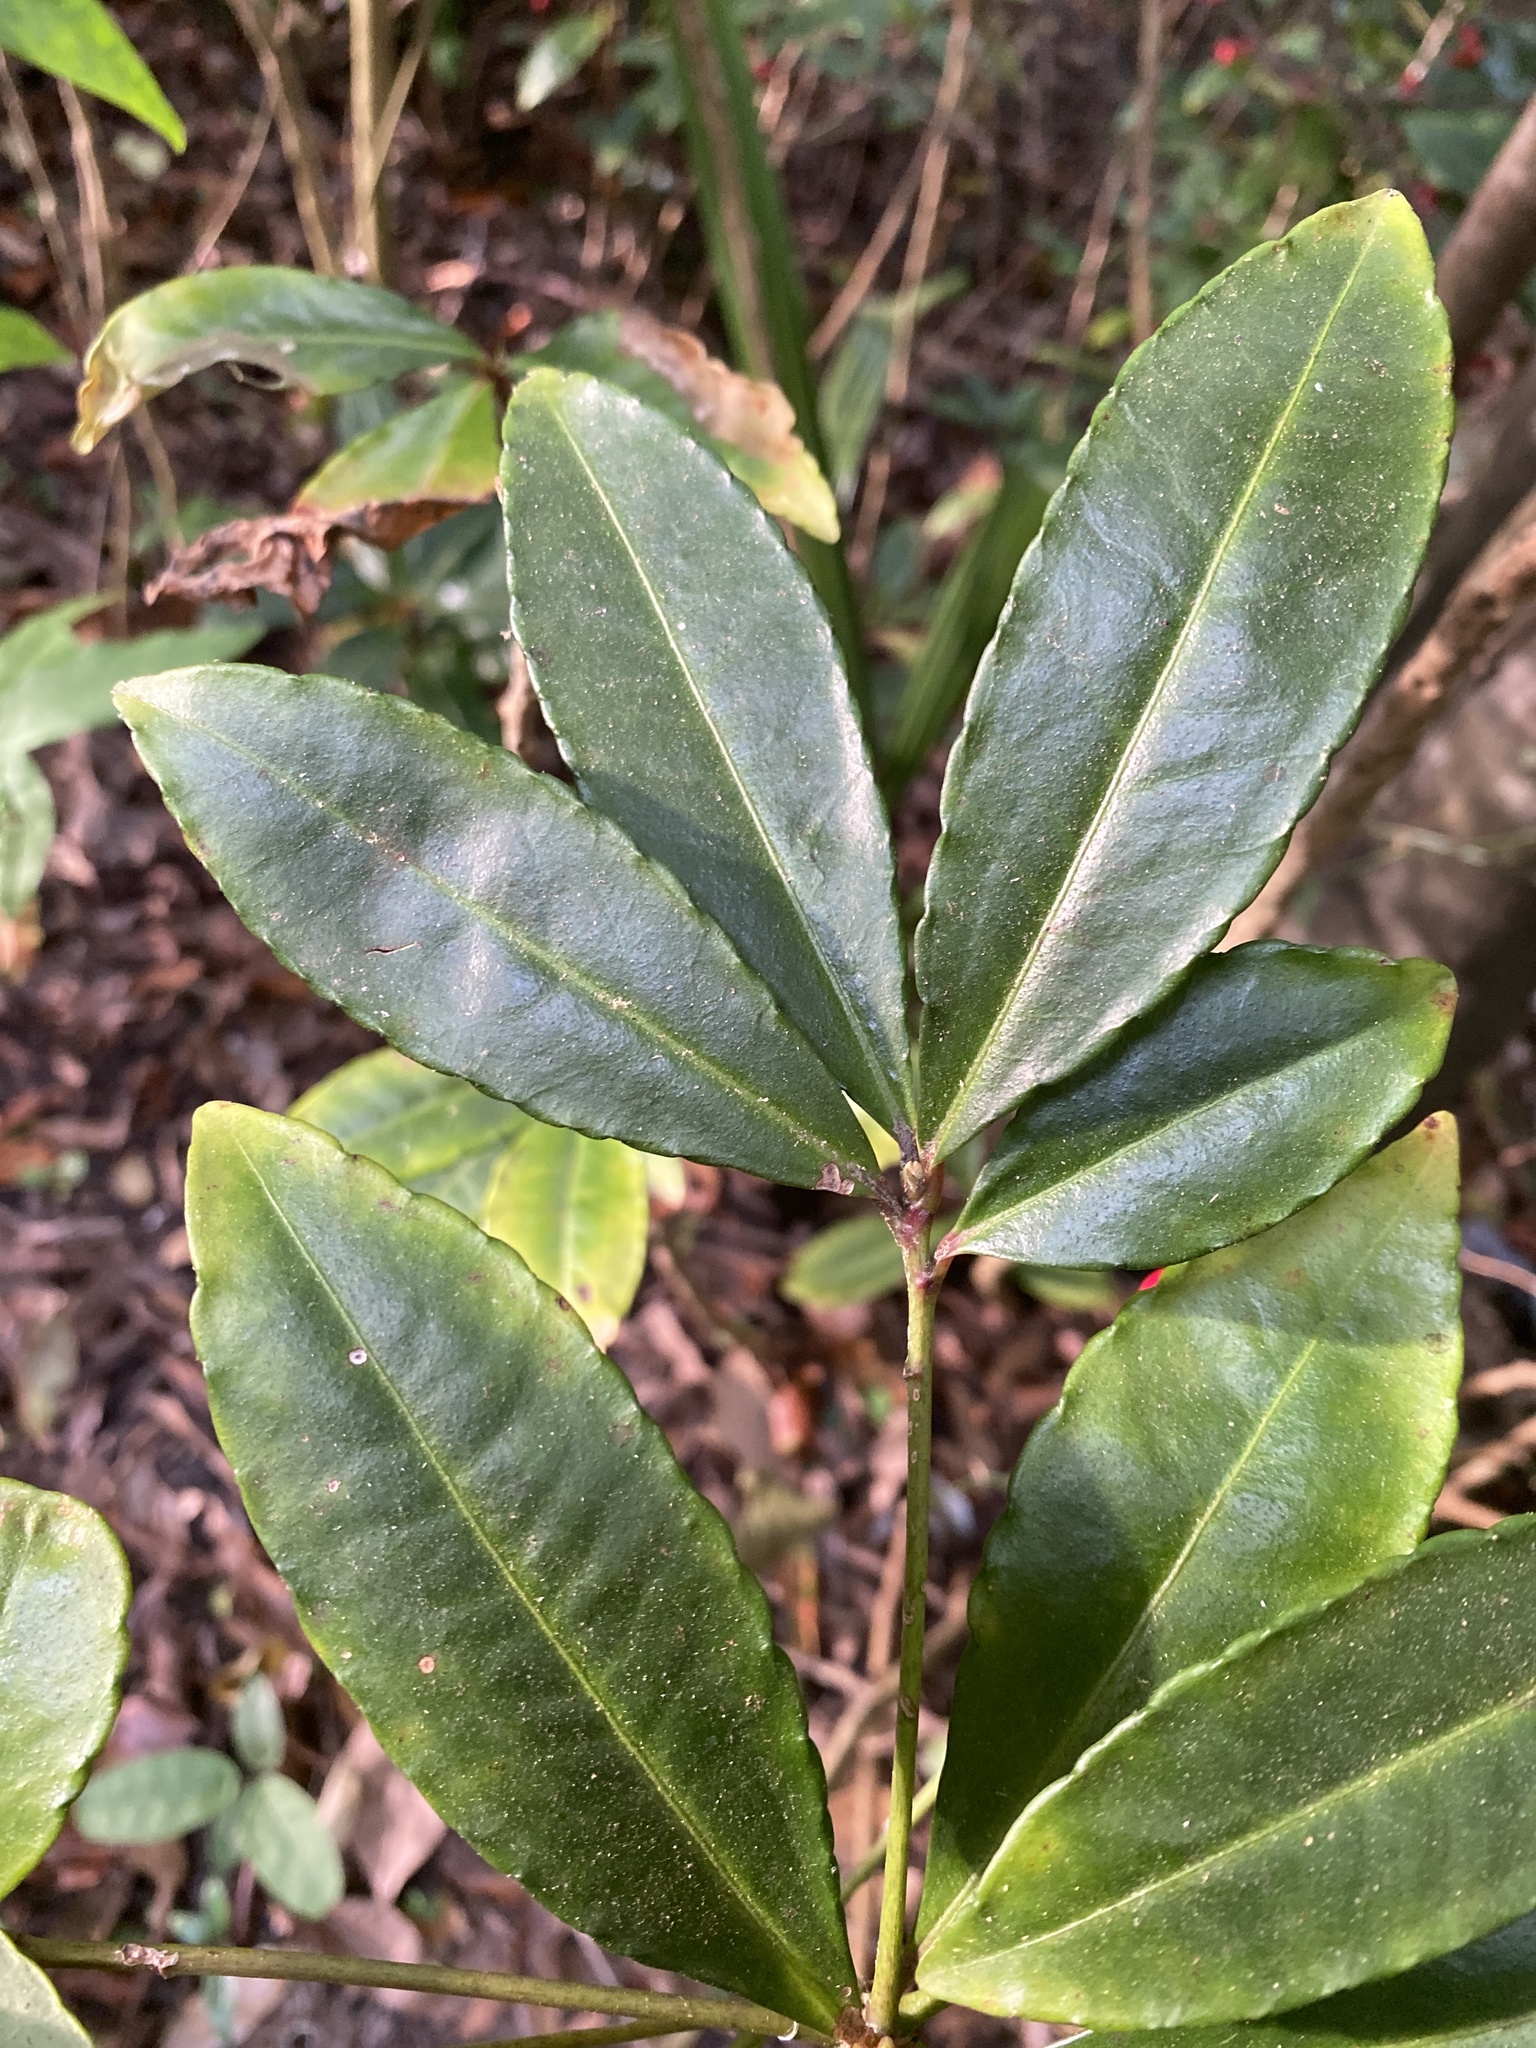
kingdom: Plantae
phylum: Tracheophyta
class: Magnoliopsida
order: Ericales
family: Primulaceae
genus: Ardisia
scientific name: Ardisia crenata
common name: Hen's eyes
